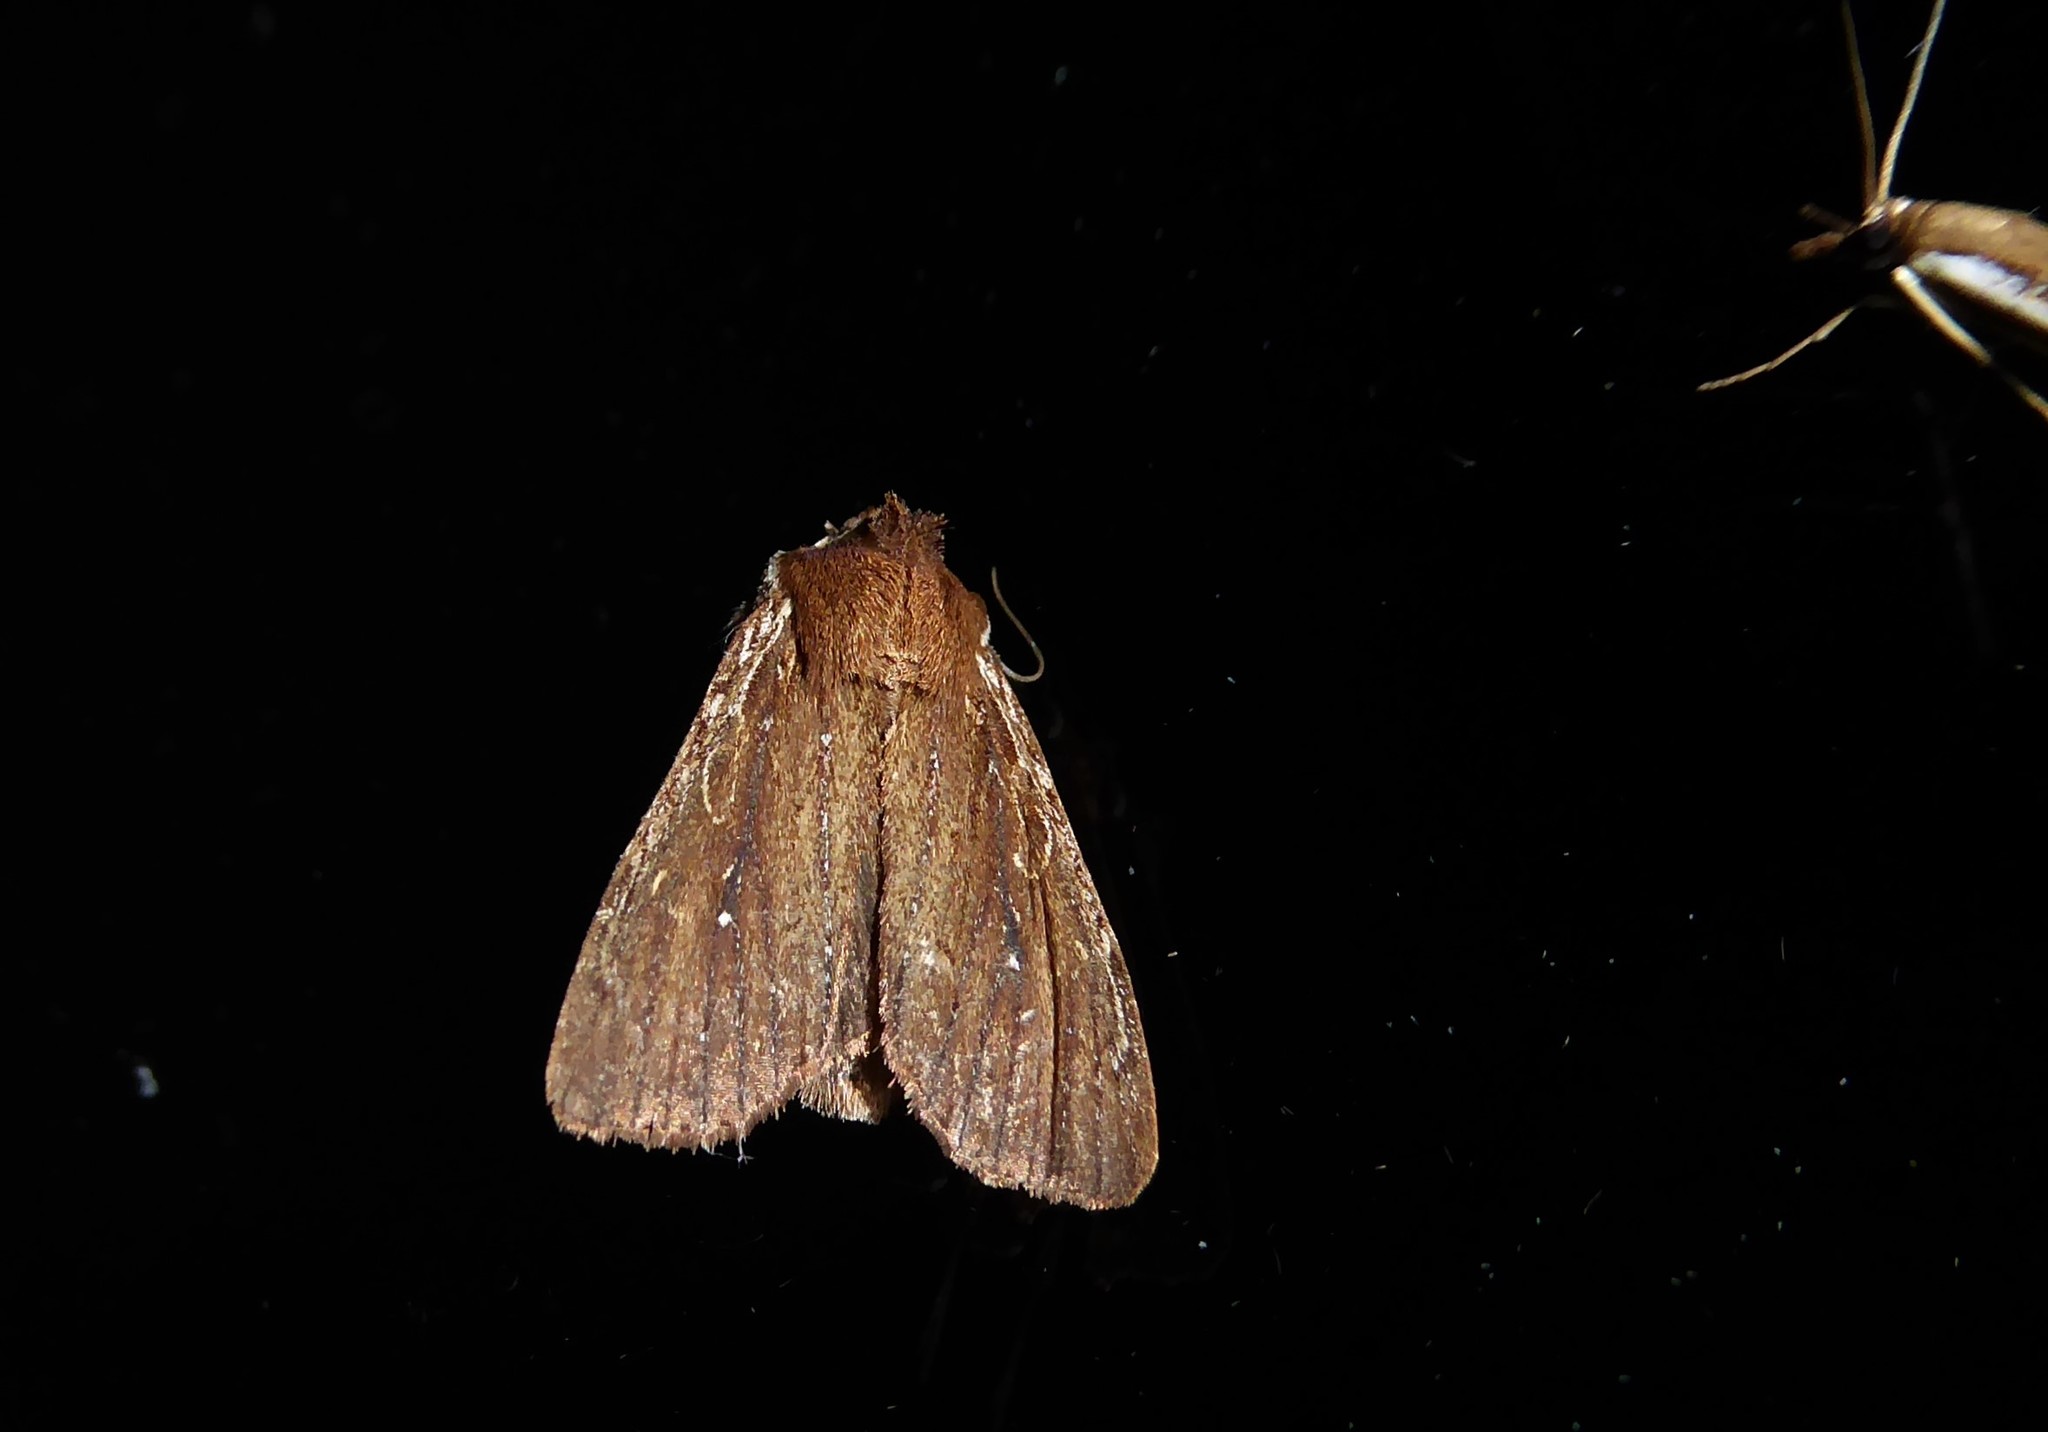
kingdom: Animalia
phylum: Arthropoda
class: Insecta
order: Lepidoptera
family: Noctuidae
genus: Ichneutica
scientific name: Ichneutica
